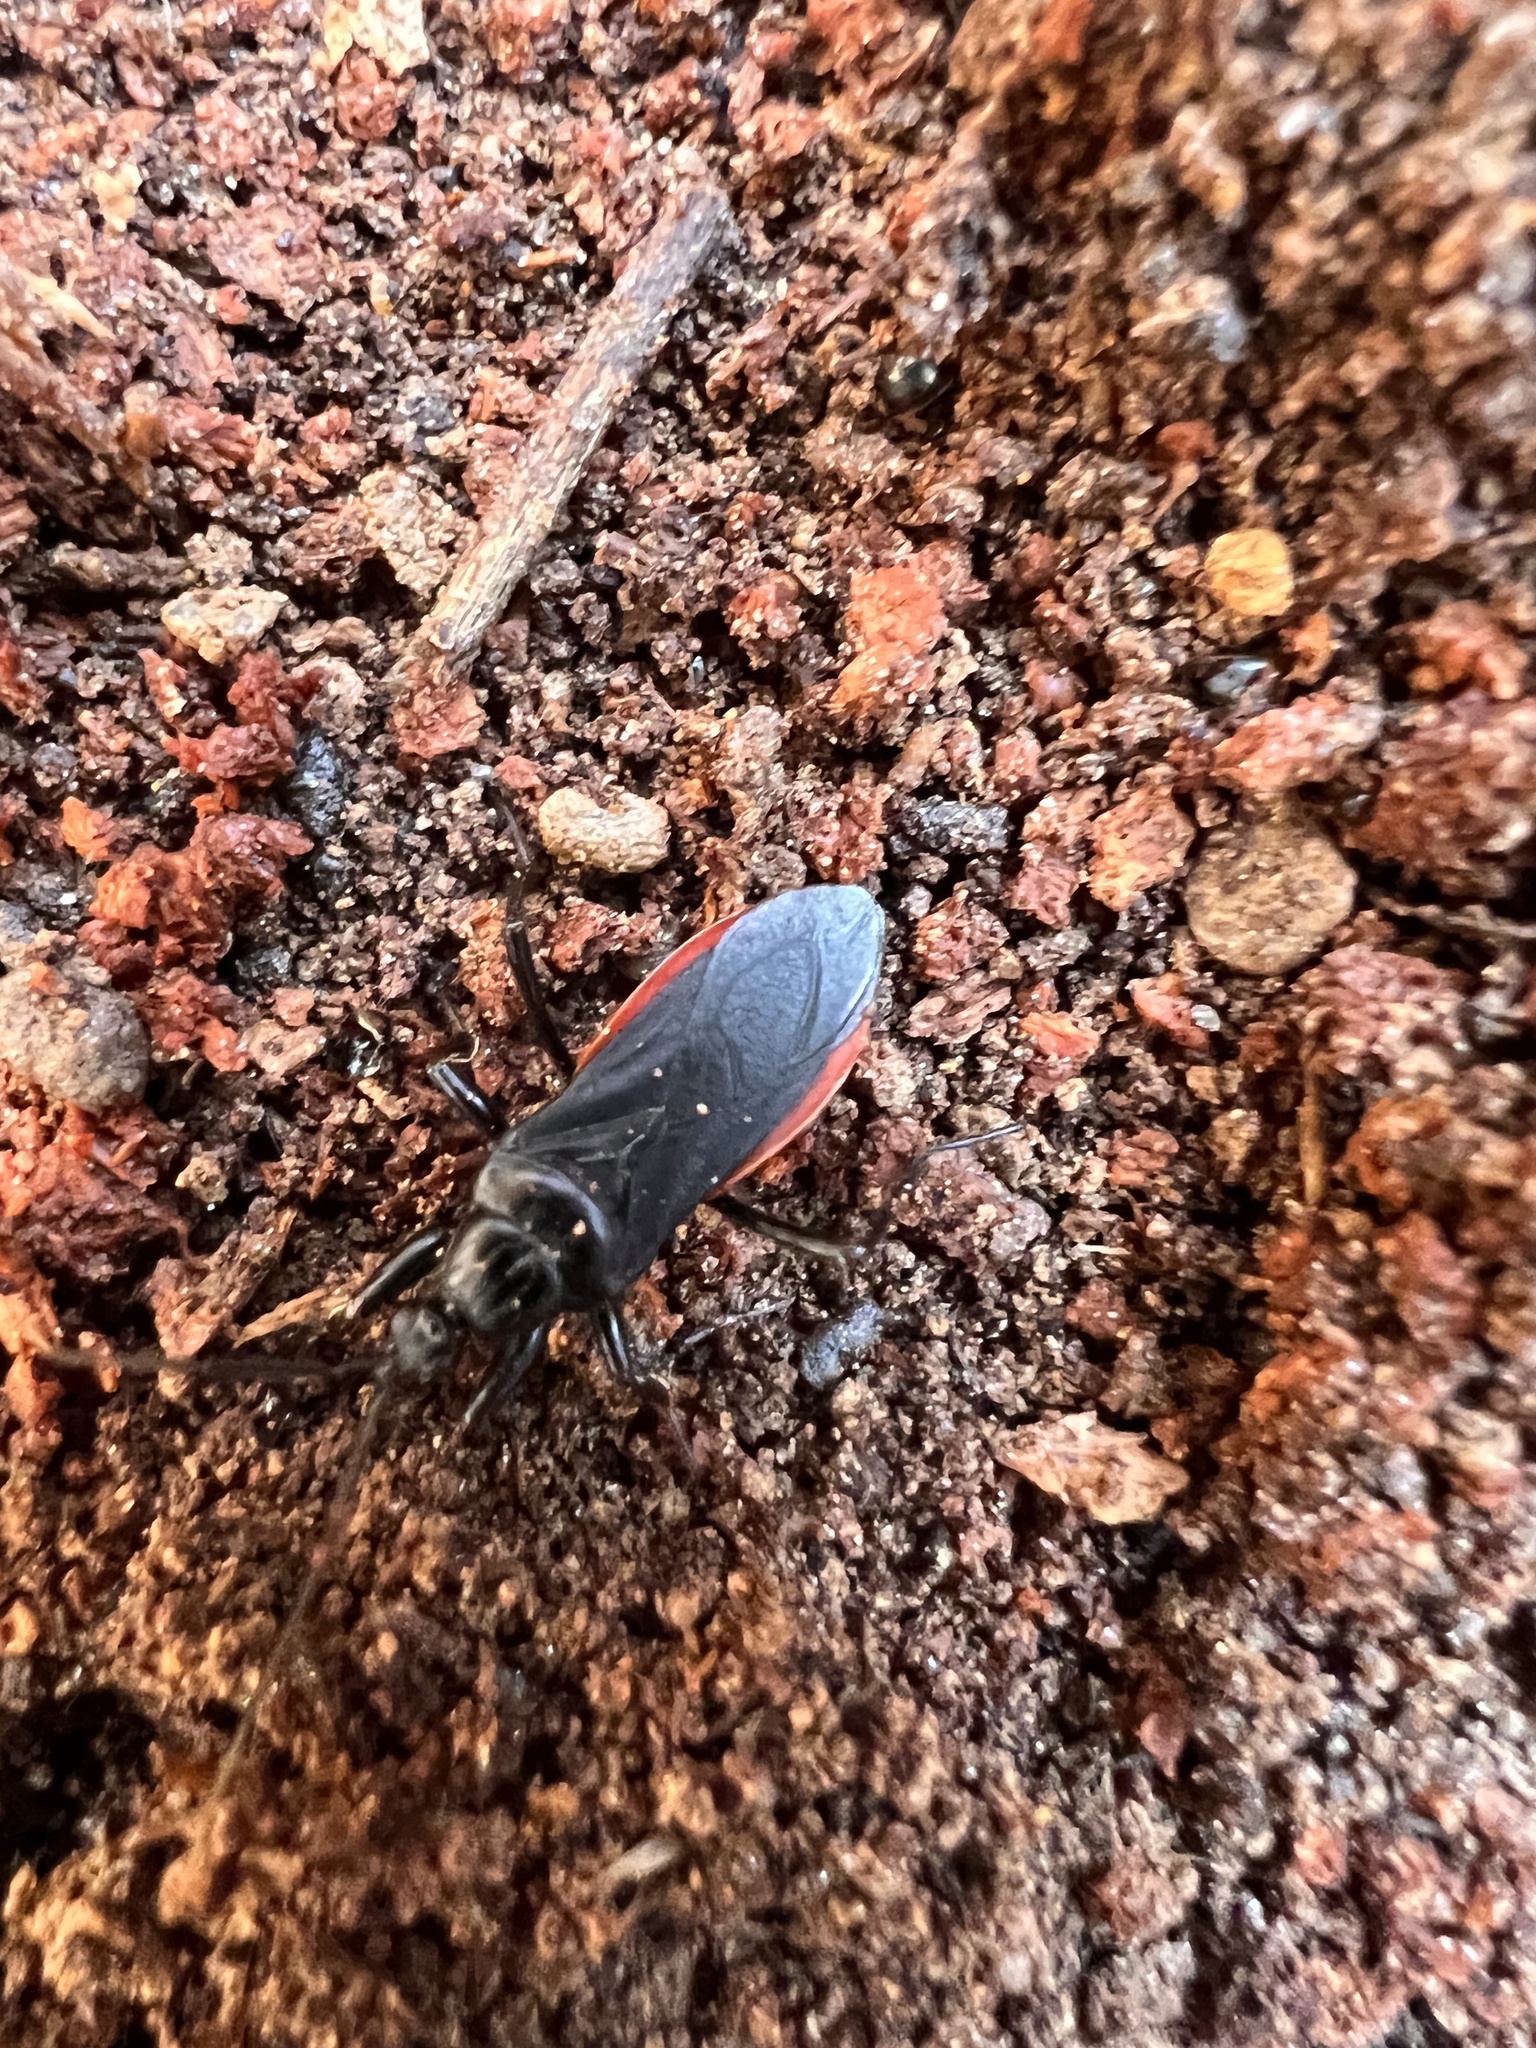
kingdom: Animalia
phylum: Arthropoda
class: Insecta
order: Hemiptera
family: Reduviidae
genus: Melanolestes
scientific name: Melanolestes picipes
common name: Assassin bug
